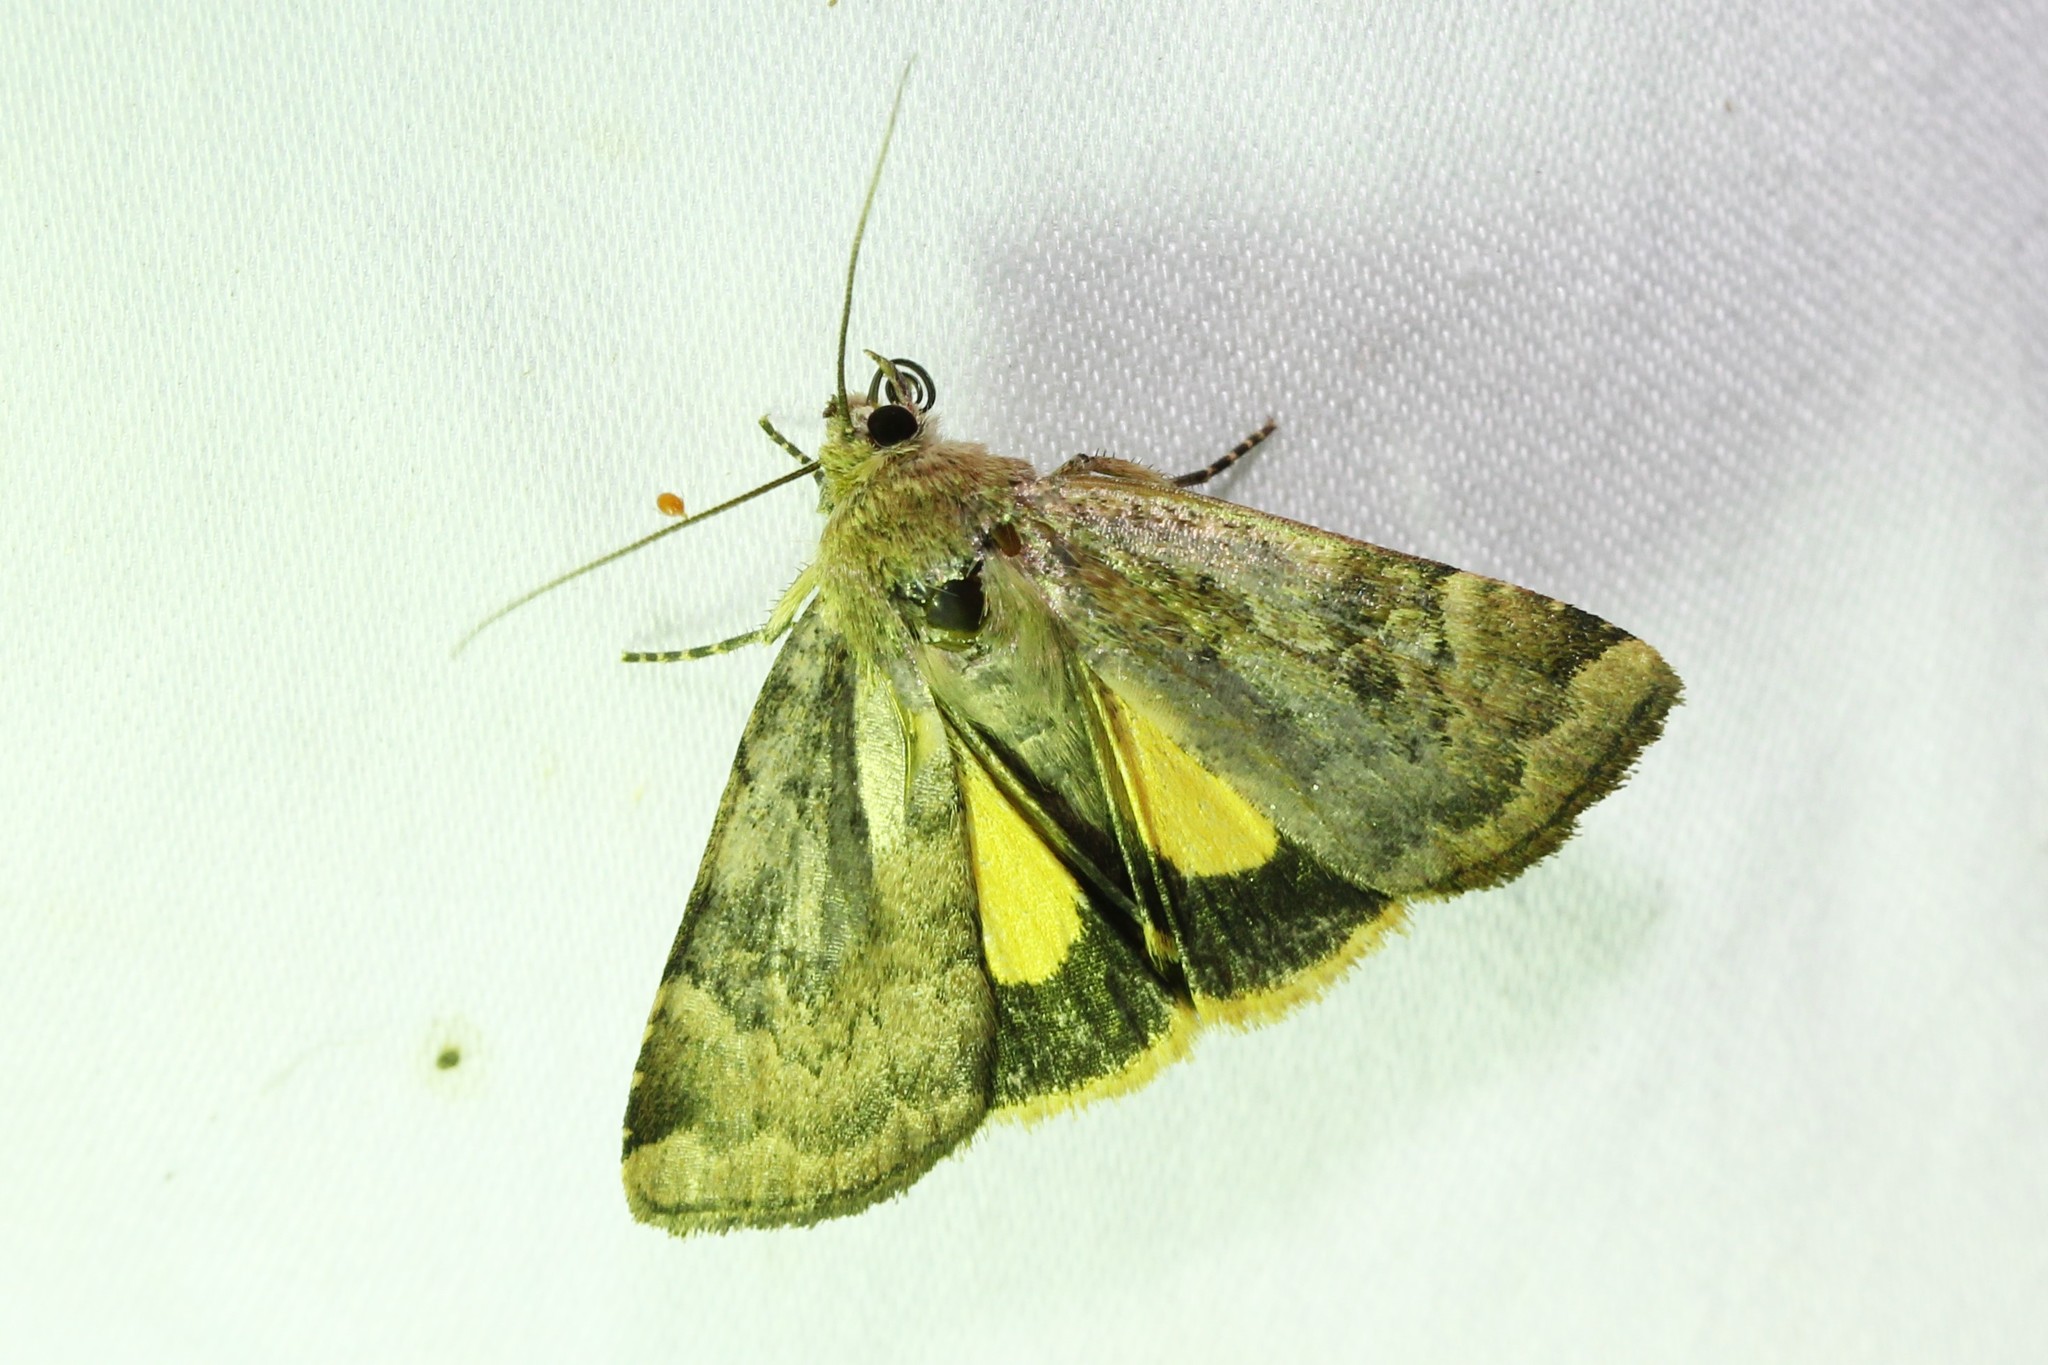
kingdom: Animalia
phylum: Arthropoda
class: Insecta
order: Lepidoptera
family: Noctuidae
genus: Cryptocala
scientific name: Cryptocala acadiensis
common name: Catocaline dart
